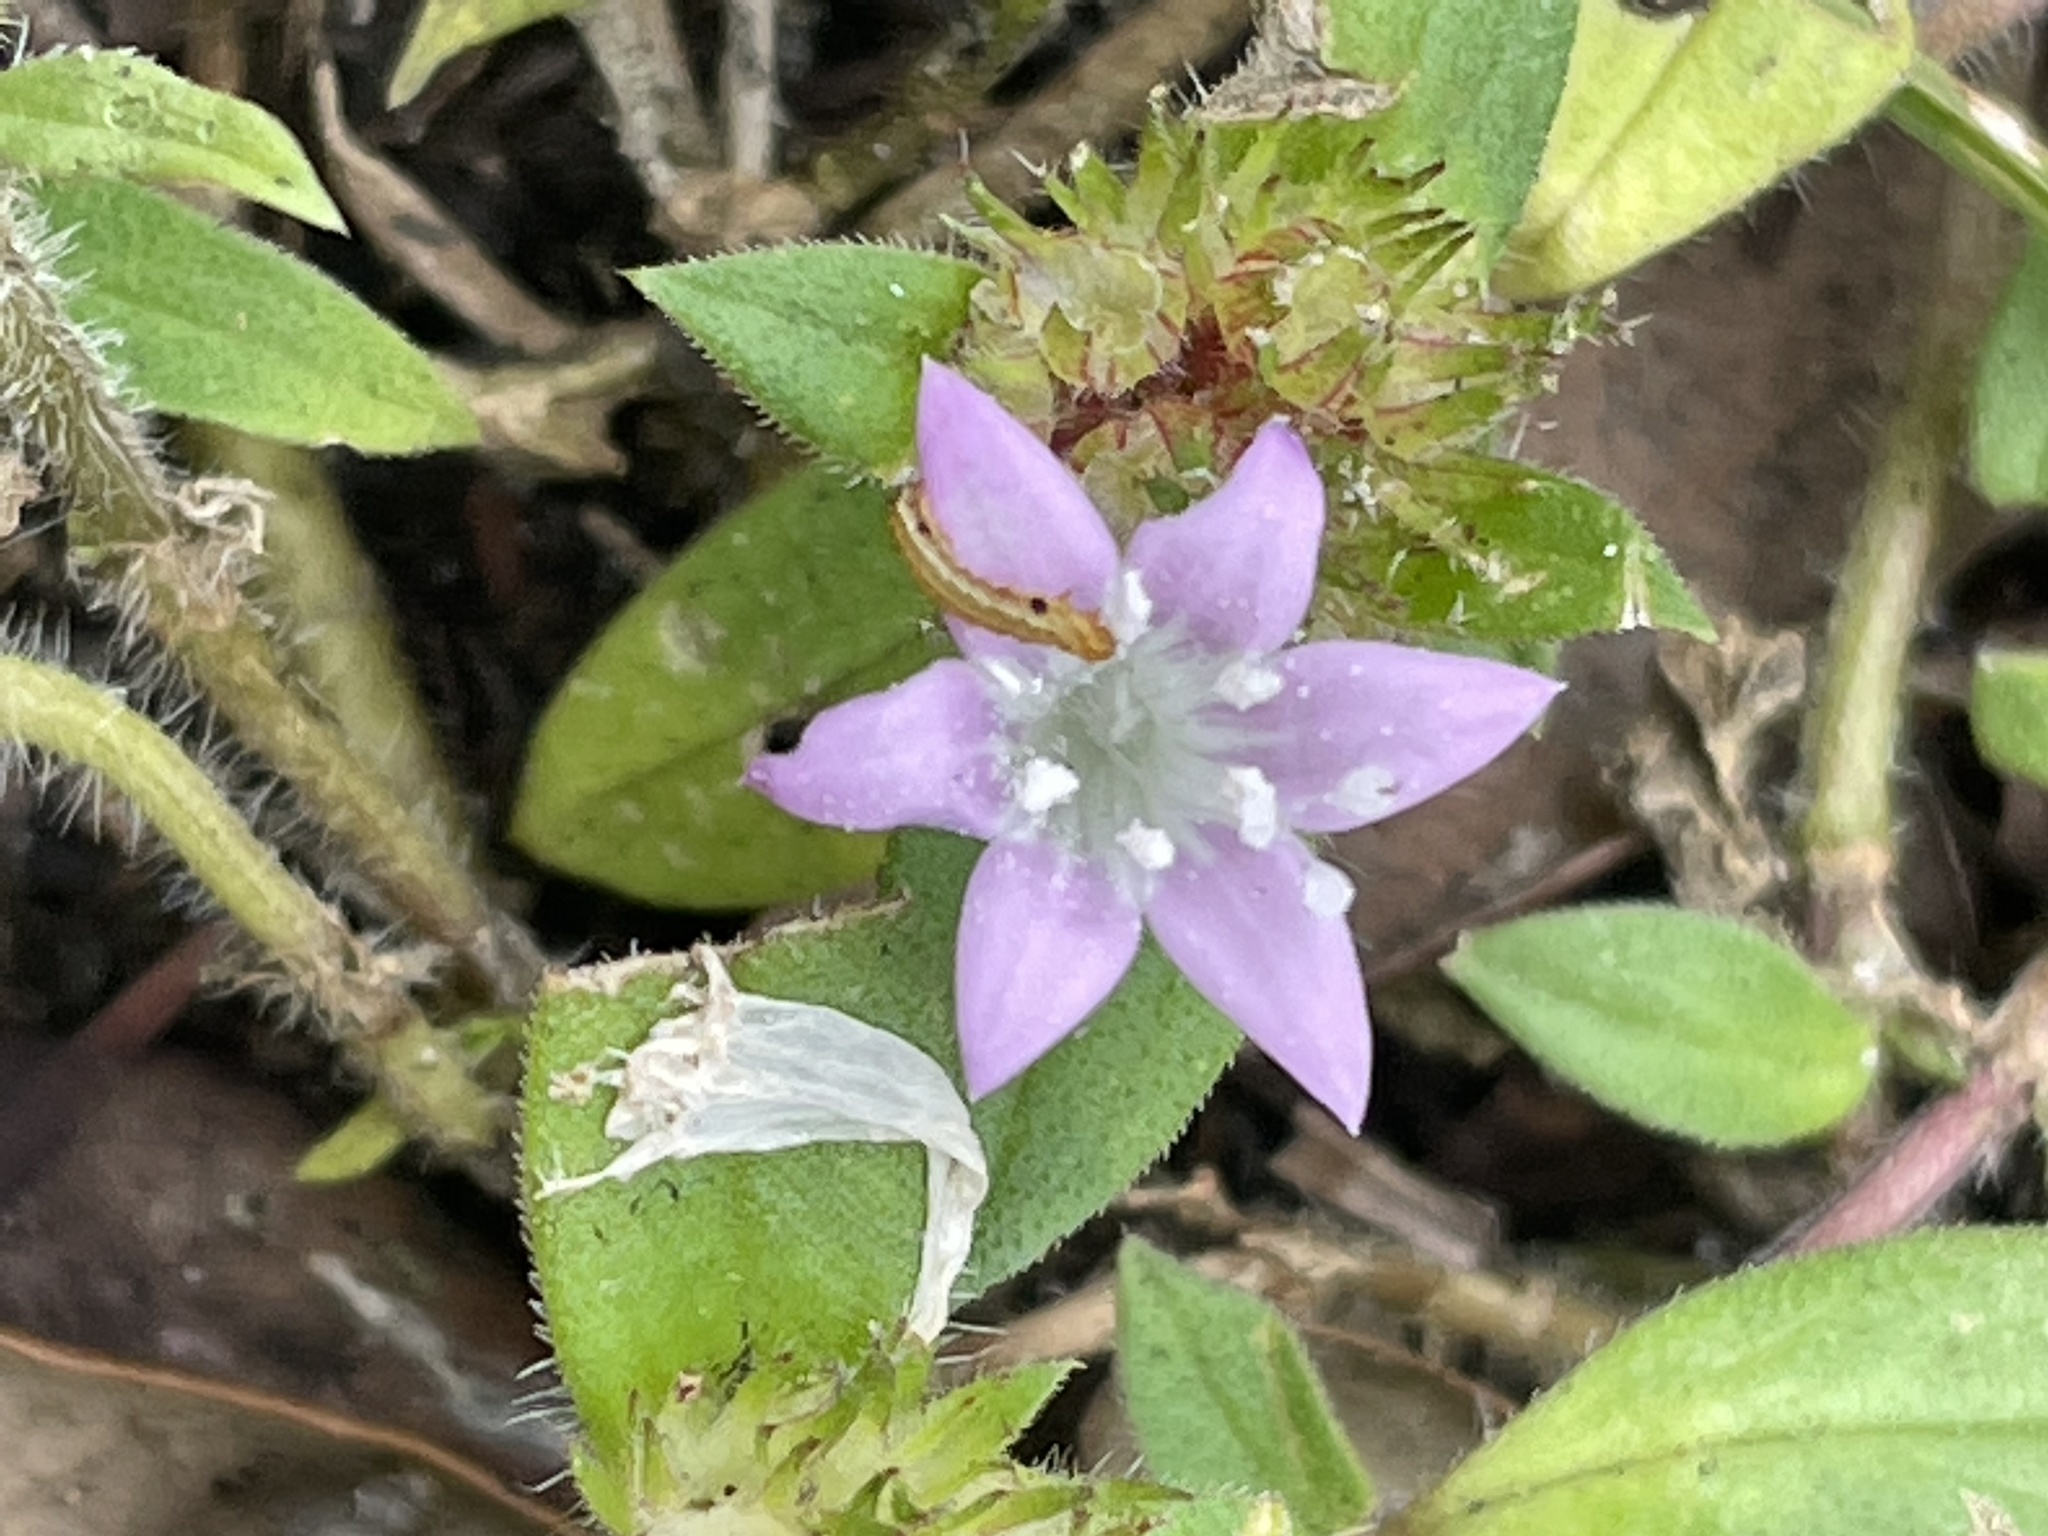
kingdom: Plantae
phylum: Tracheophyta
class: Magnoliopsida
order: Gentianales
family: Rubiaceae
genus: Richardia
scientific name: Richardia grandiflora
